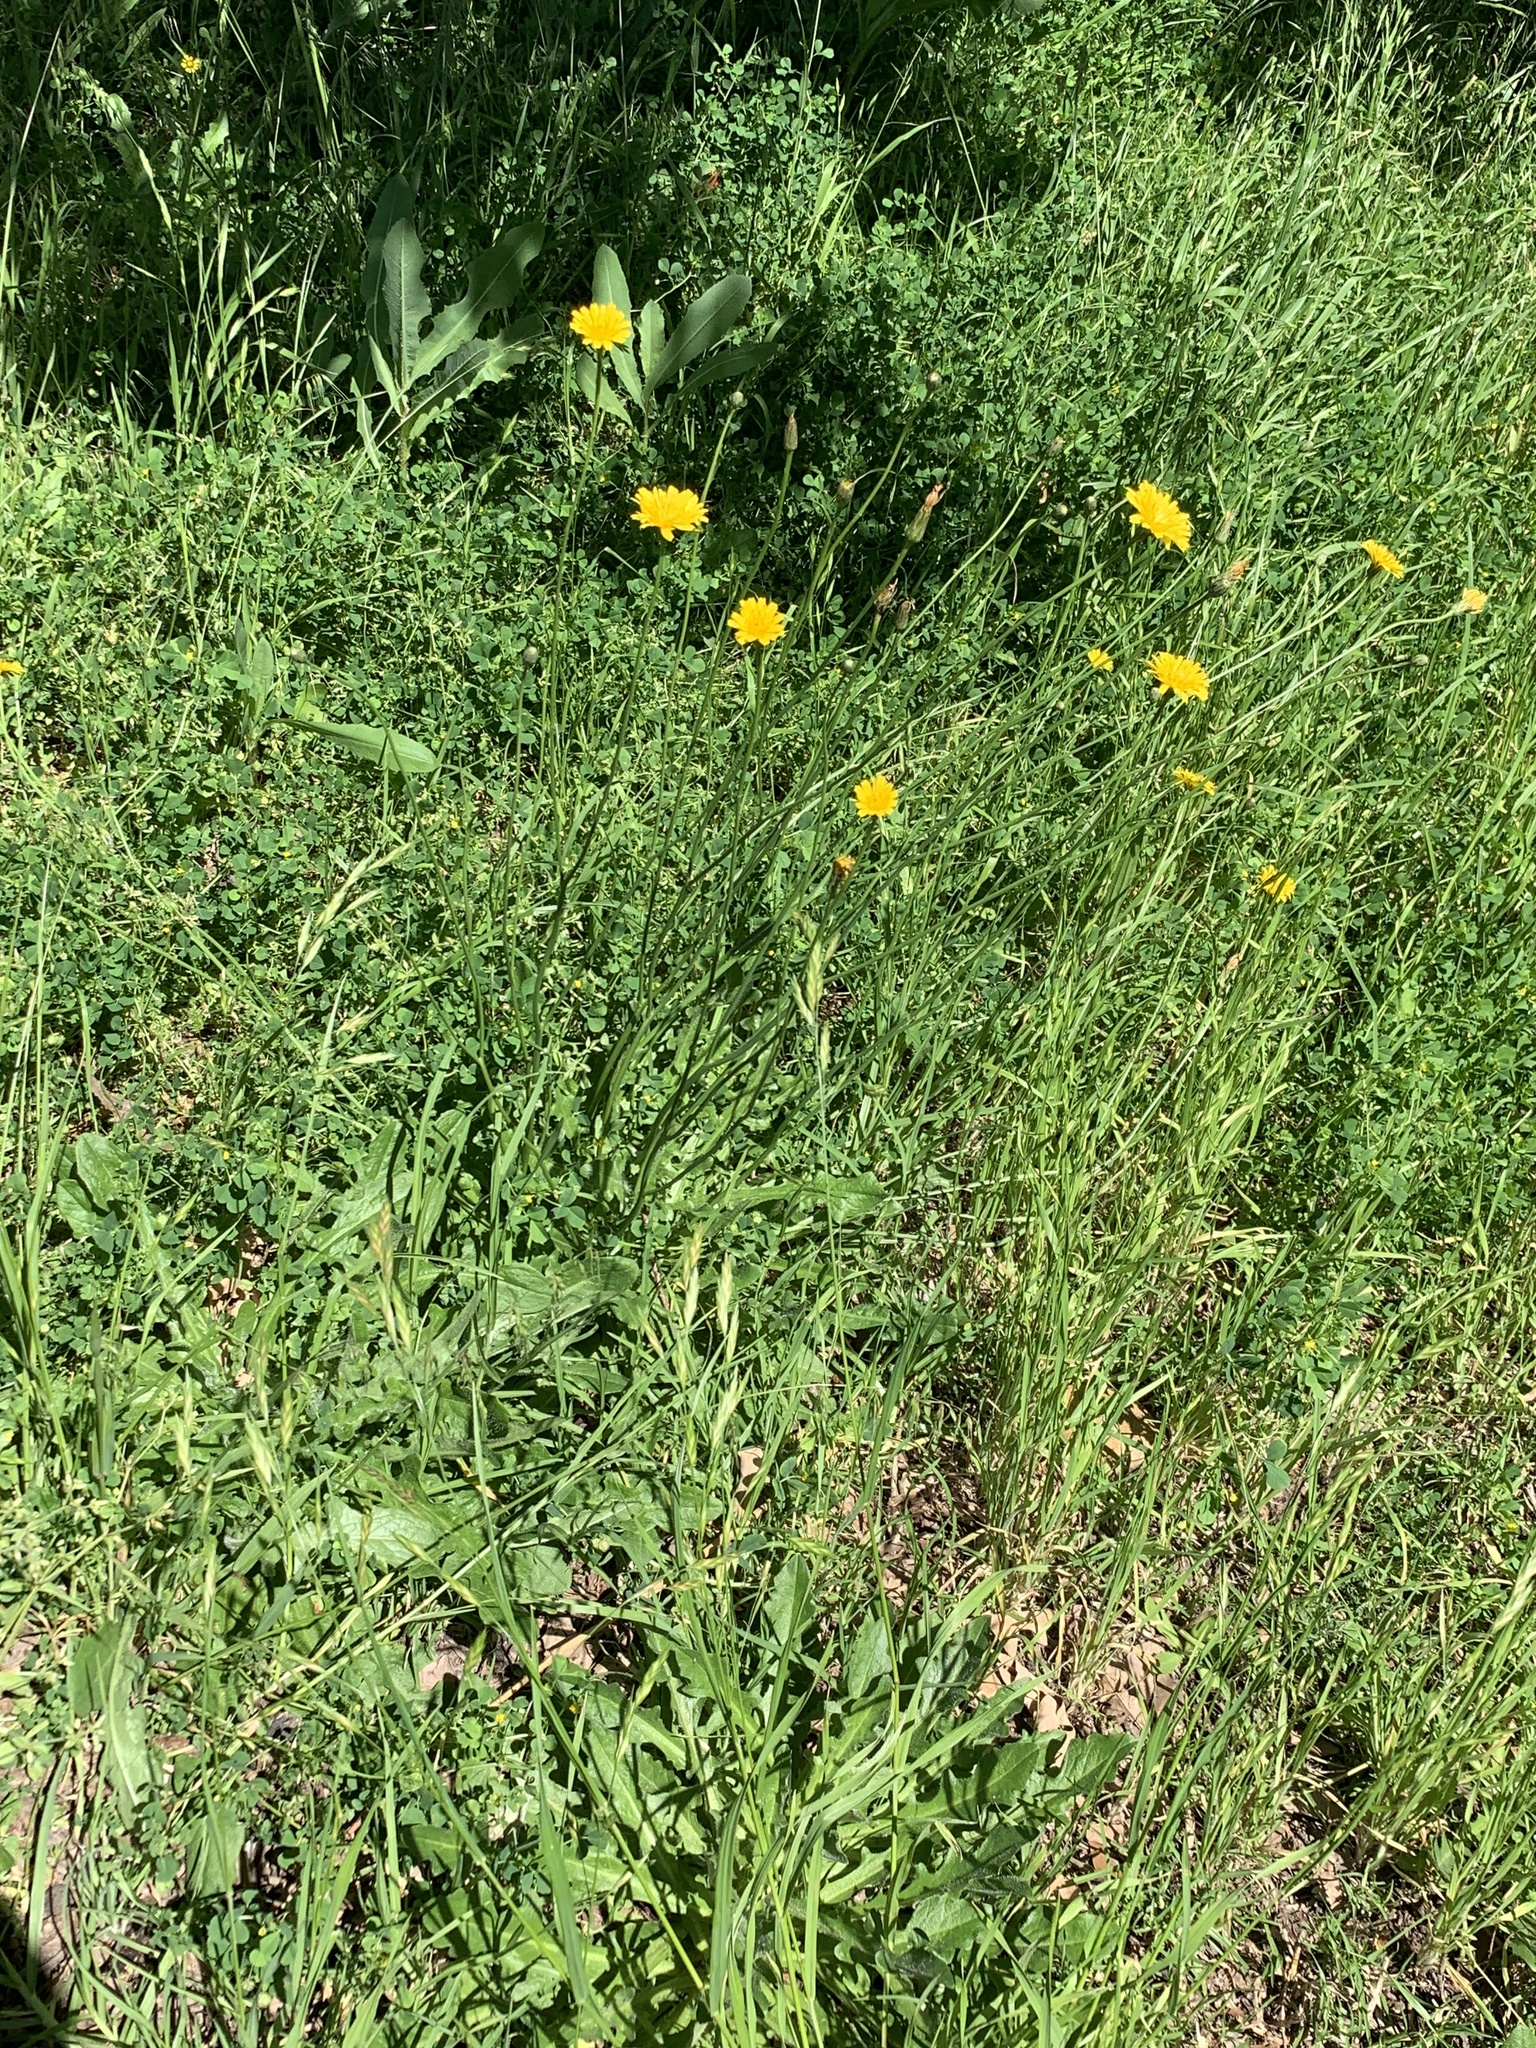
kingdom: Plantae
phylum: Tracheophyta
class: Magnoliopsida
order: Asterales
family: Asteraceae
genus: Hypochaeris
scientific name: Hypochaeris radicata
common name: Flatweed
